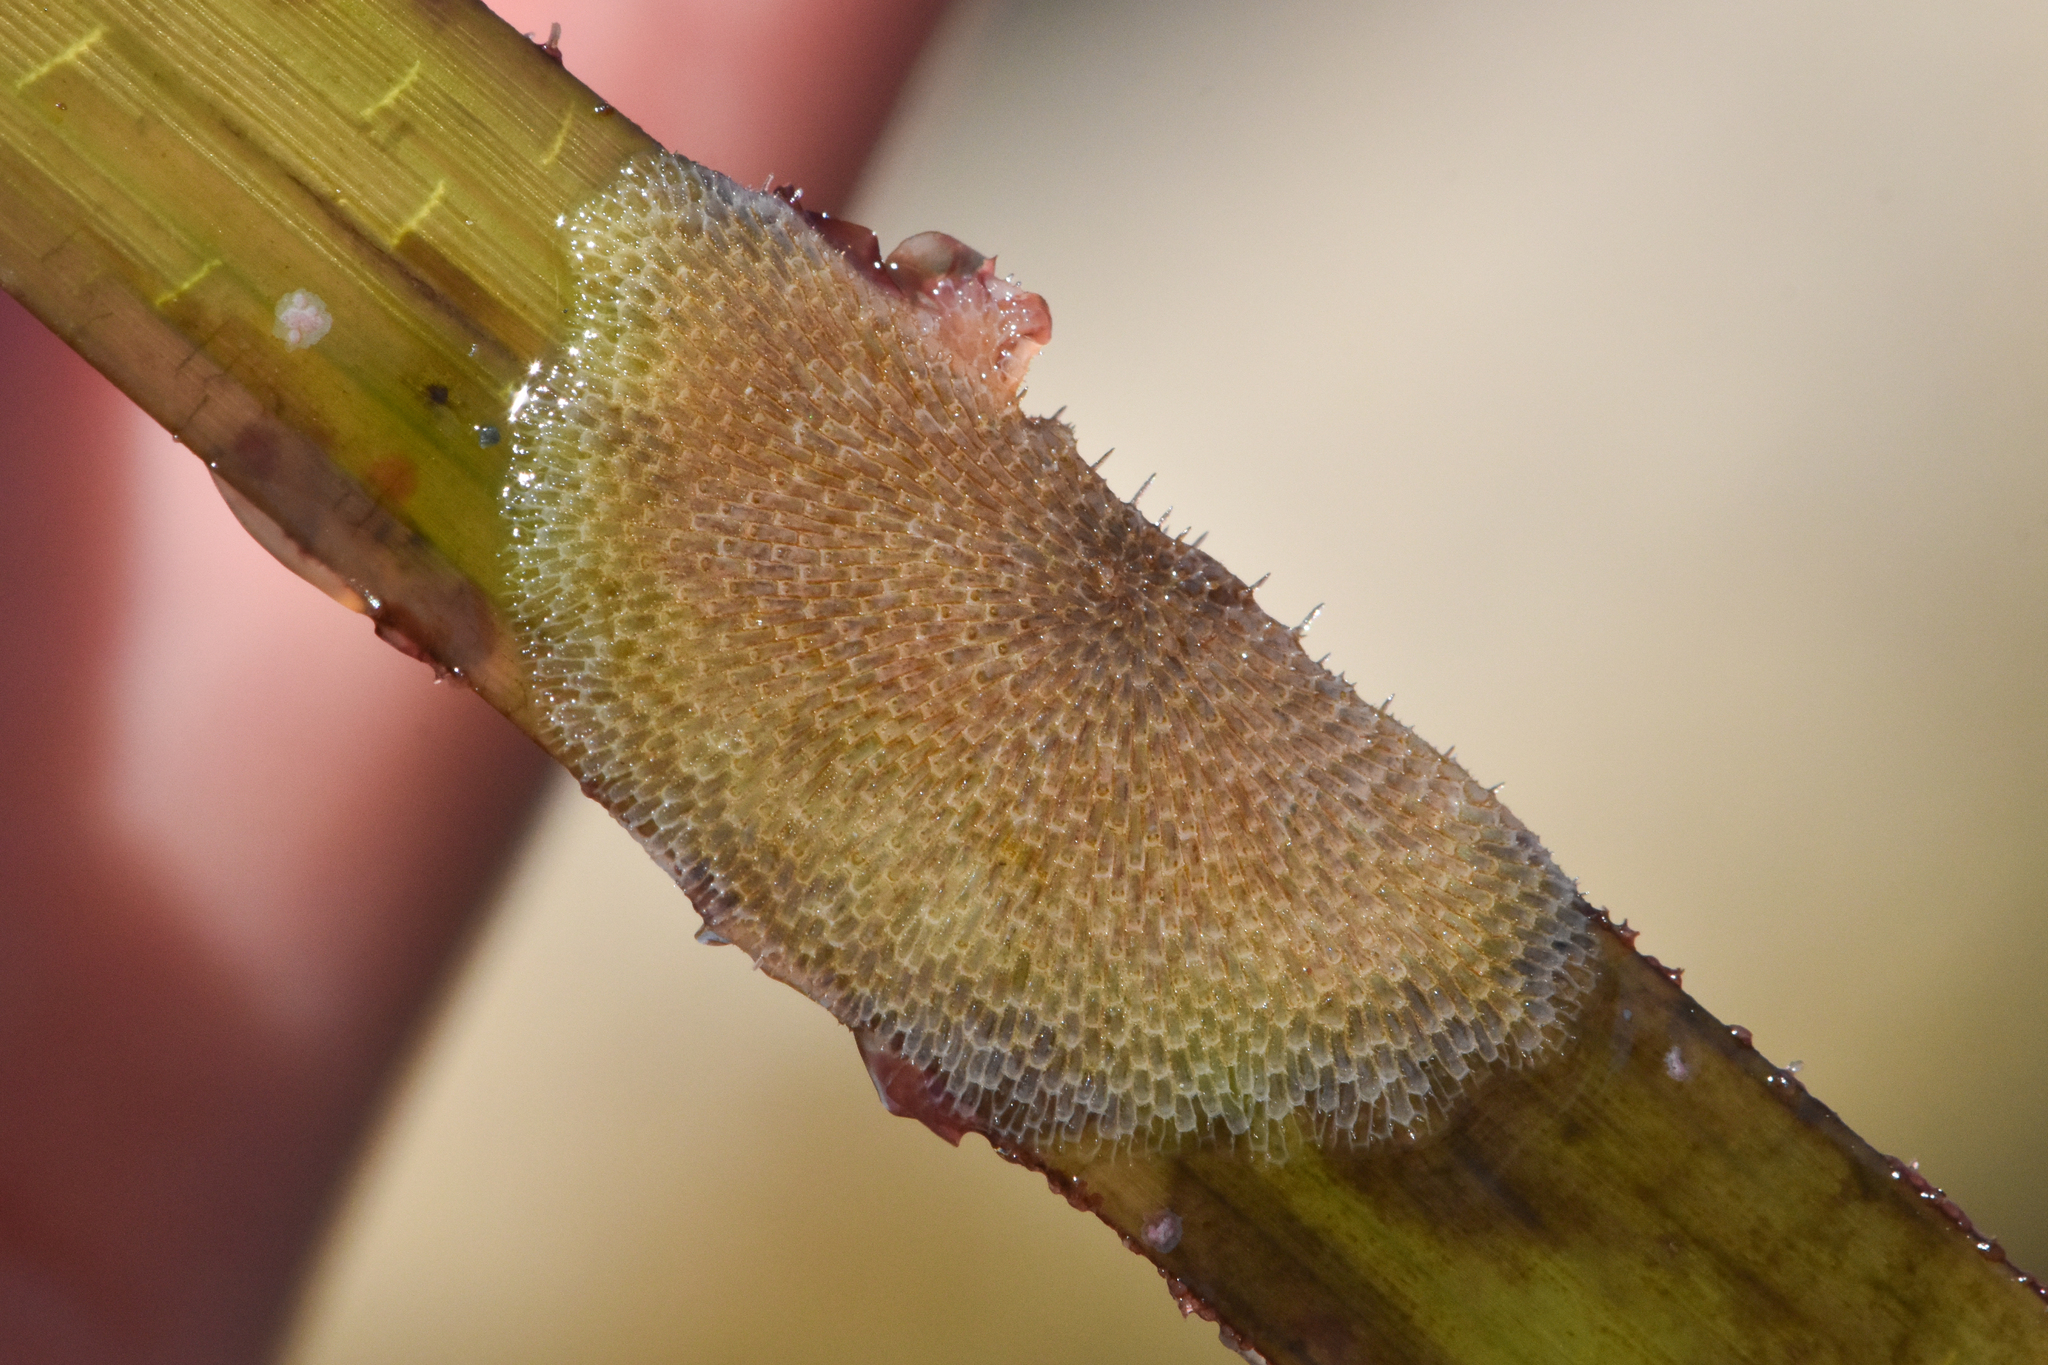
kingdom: Animalia
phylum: Bryozoa
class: Gymnolaemata
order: Cheilostomatida
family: Membraniporidae
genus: Membranipora
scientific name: Membranipora membranacea
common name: Sea mat
